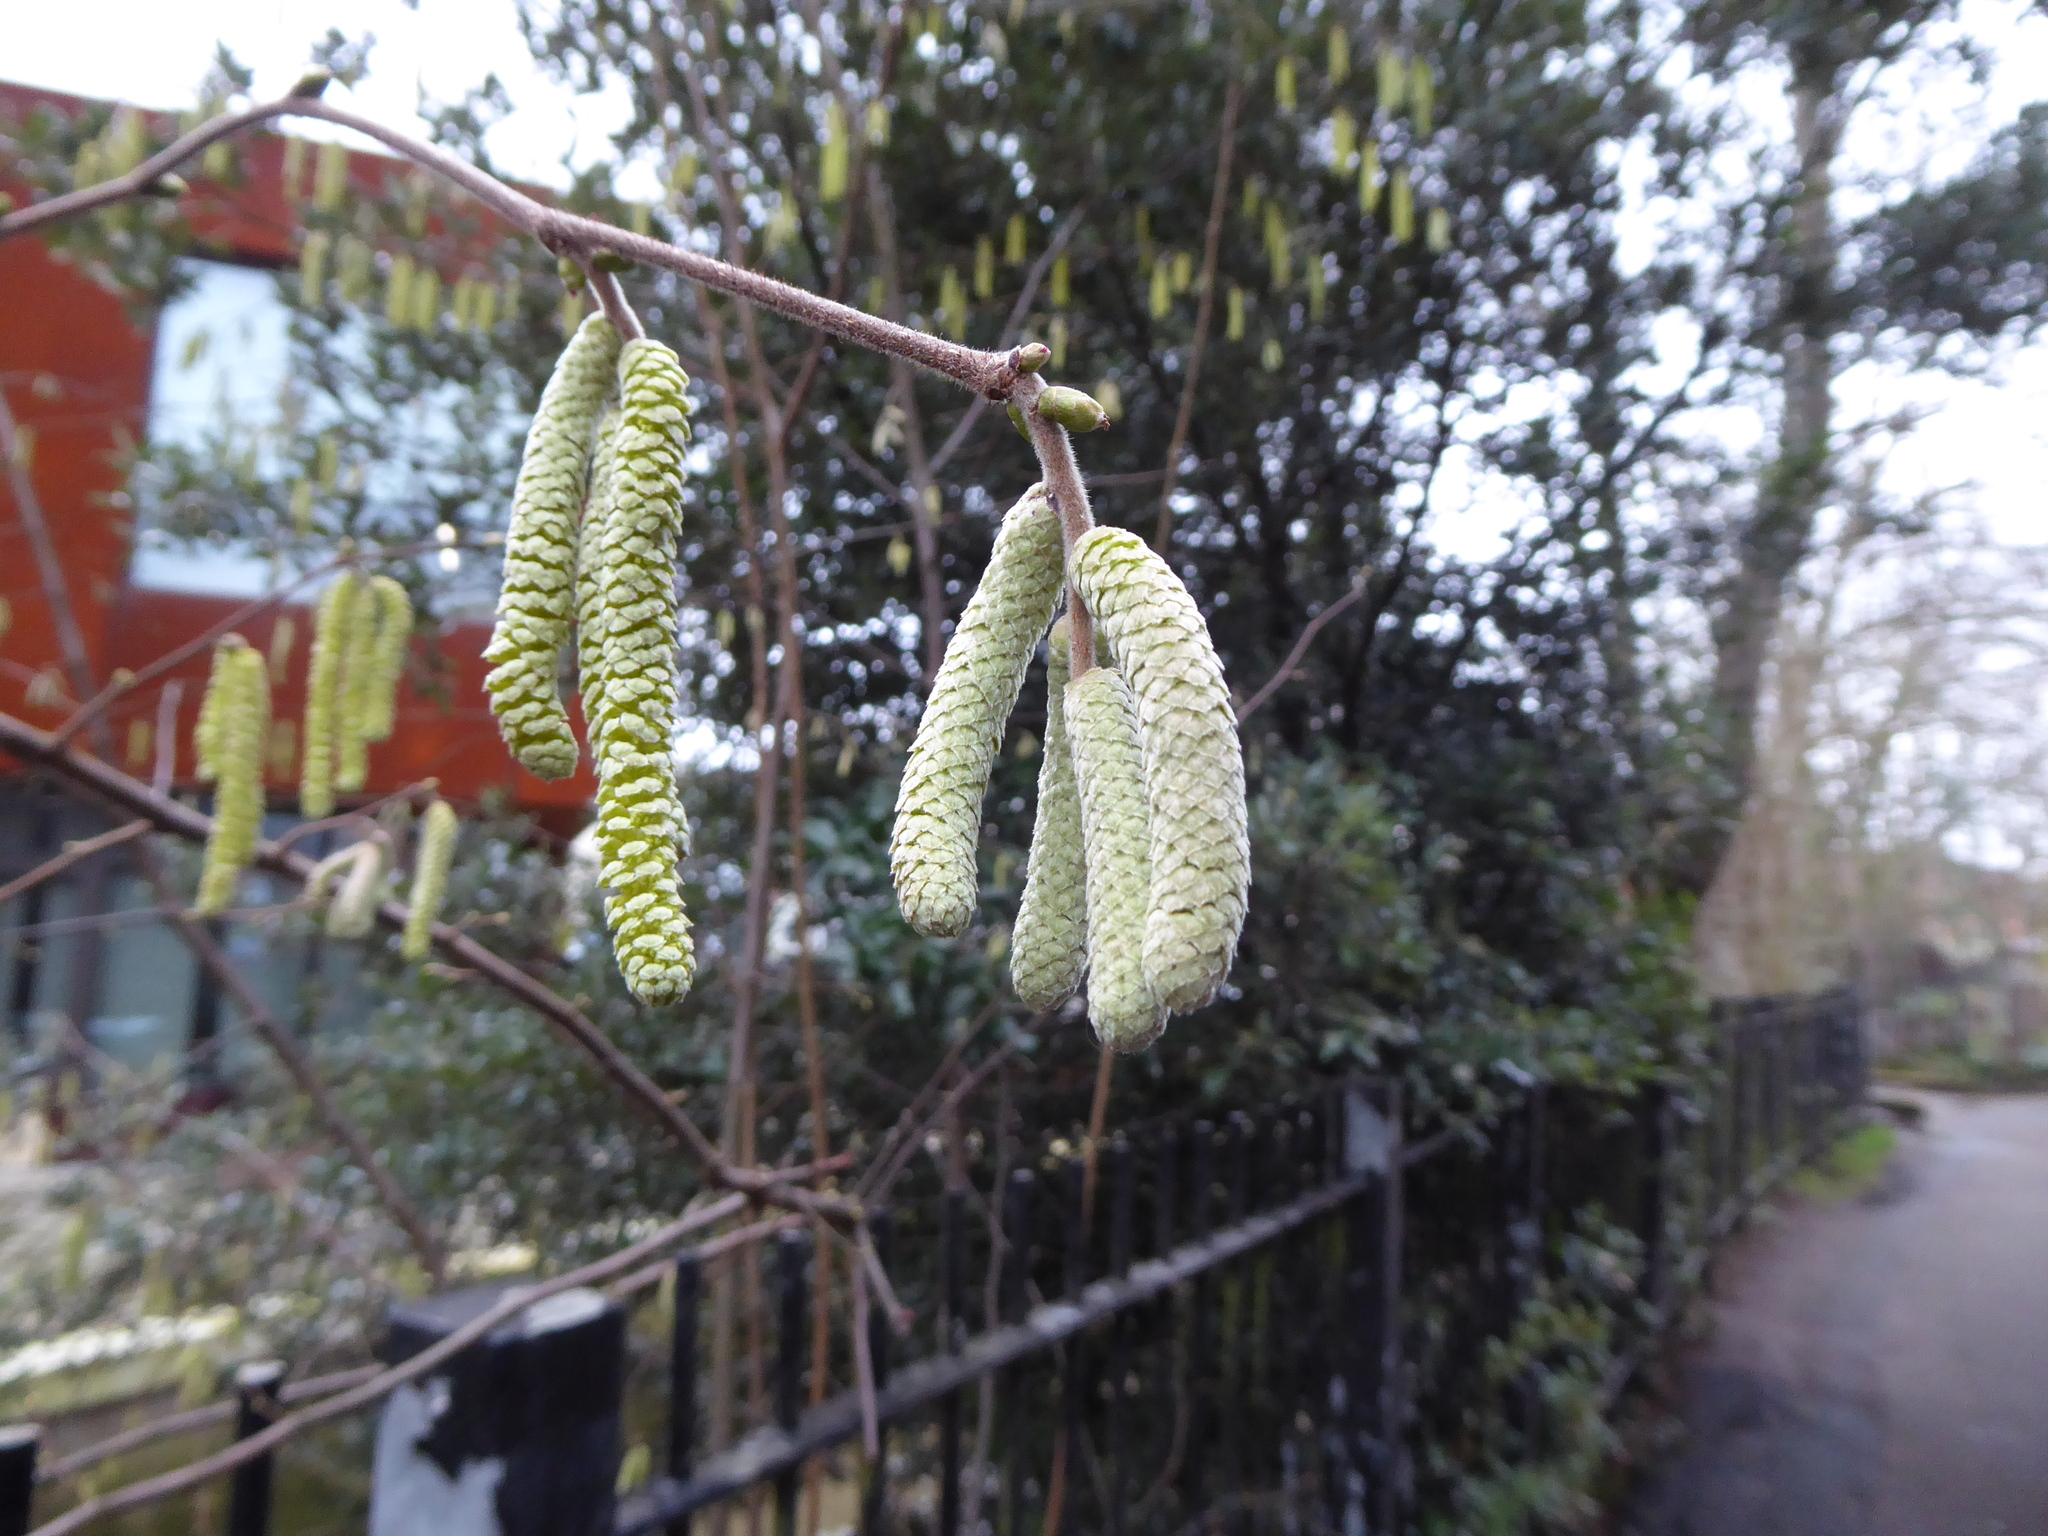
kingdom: Plantae
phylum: Tracheophyta
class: Magnoliopsida
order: Fagales
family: Betulaceae
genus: Corylus
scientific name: Corylus avellana
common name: European hazel
